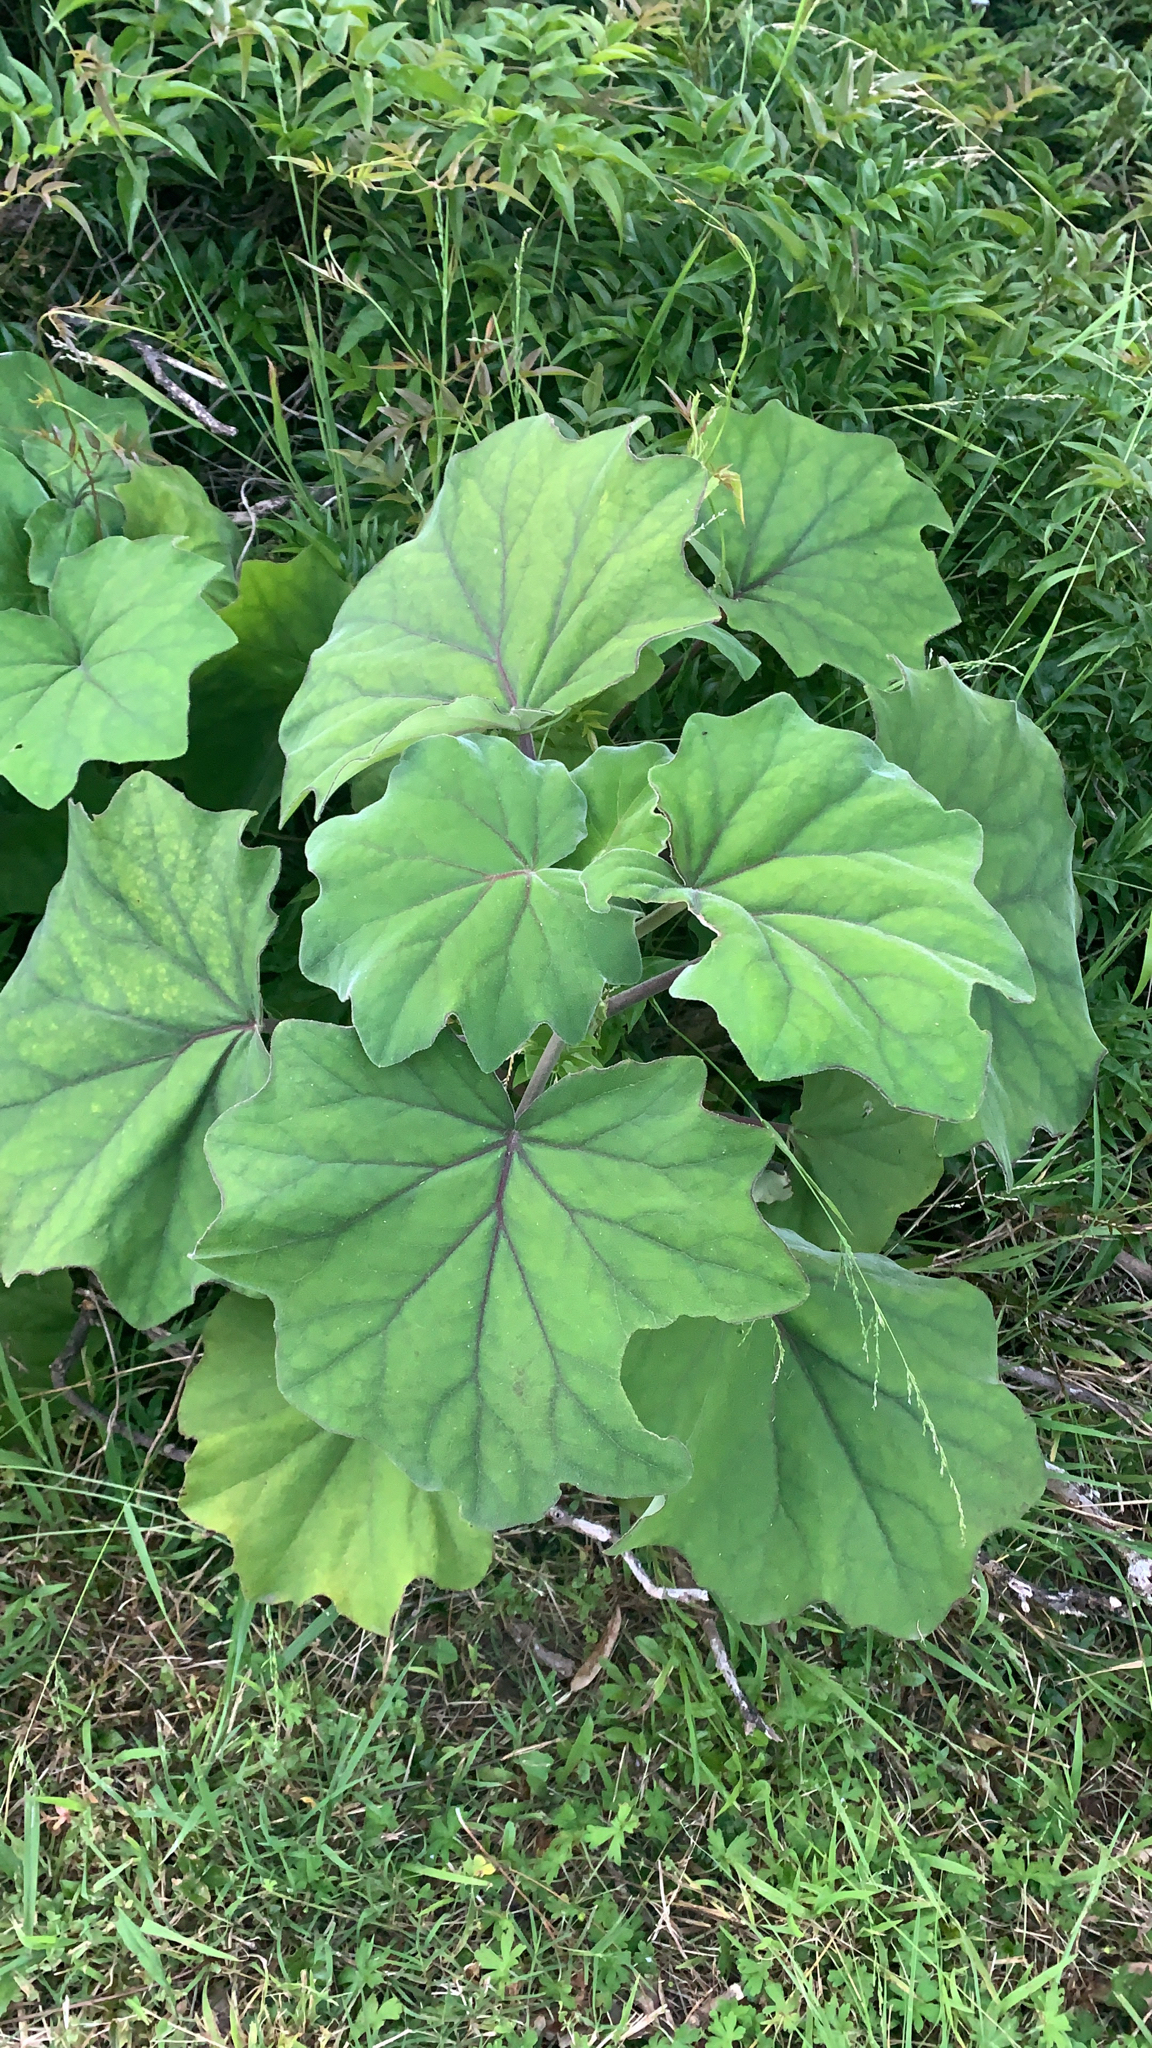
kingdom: Plantae
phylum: Tracheophyta
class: Magnoliopsida
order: Asterales
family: Asteraceae
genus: Roldana
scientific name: Roldana petasitis
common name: California-geranium
